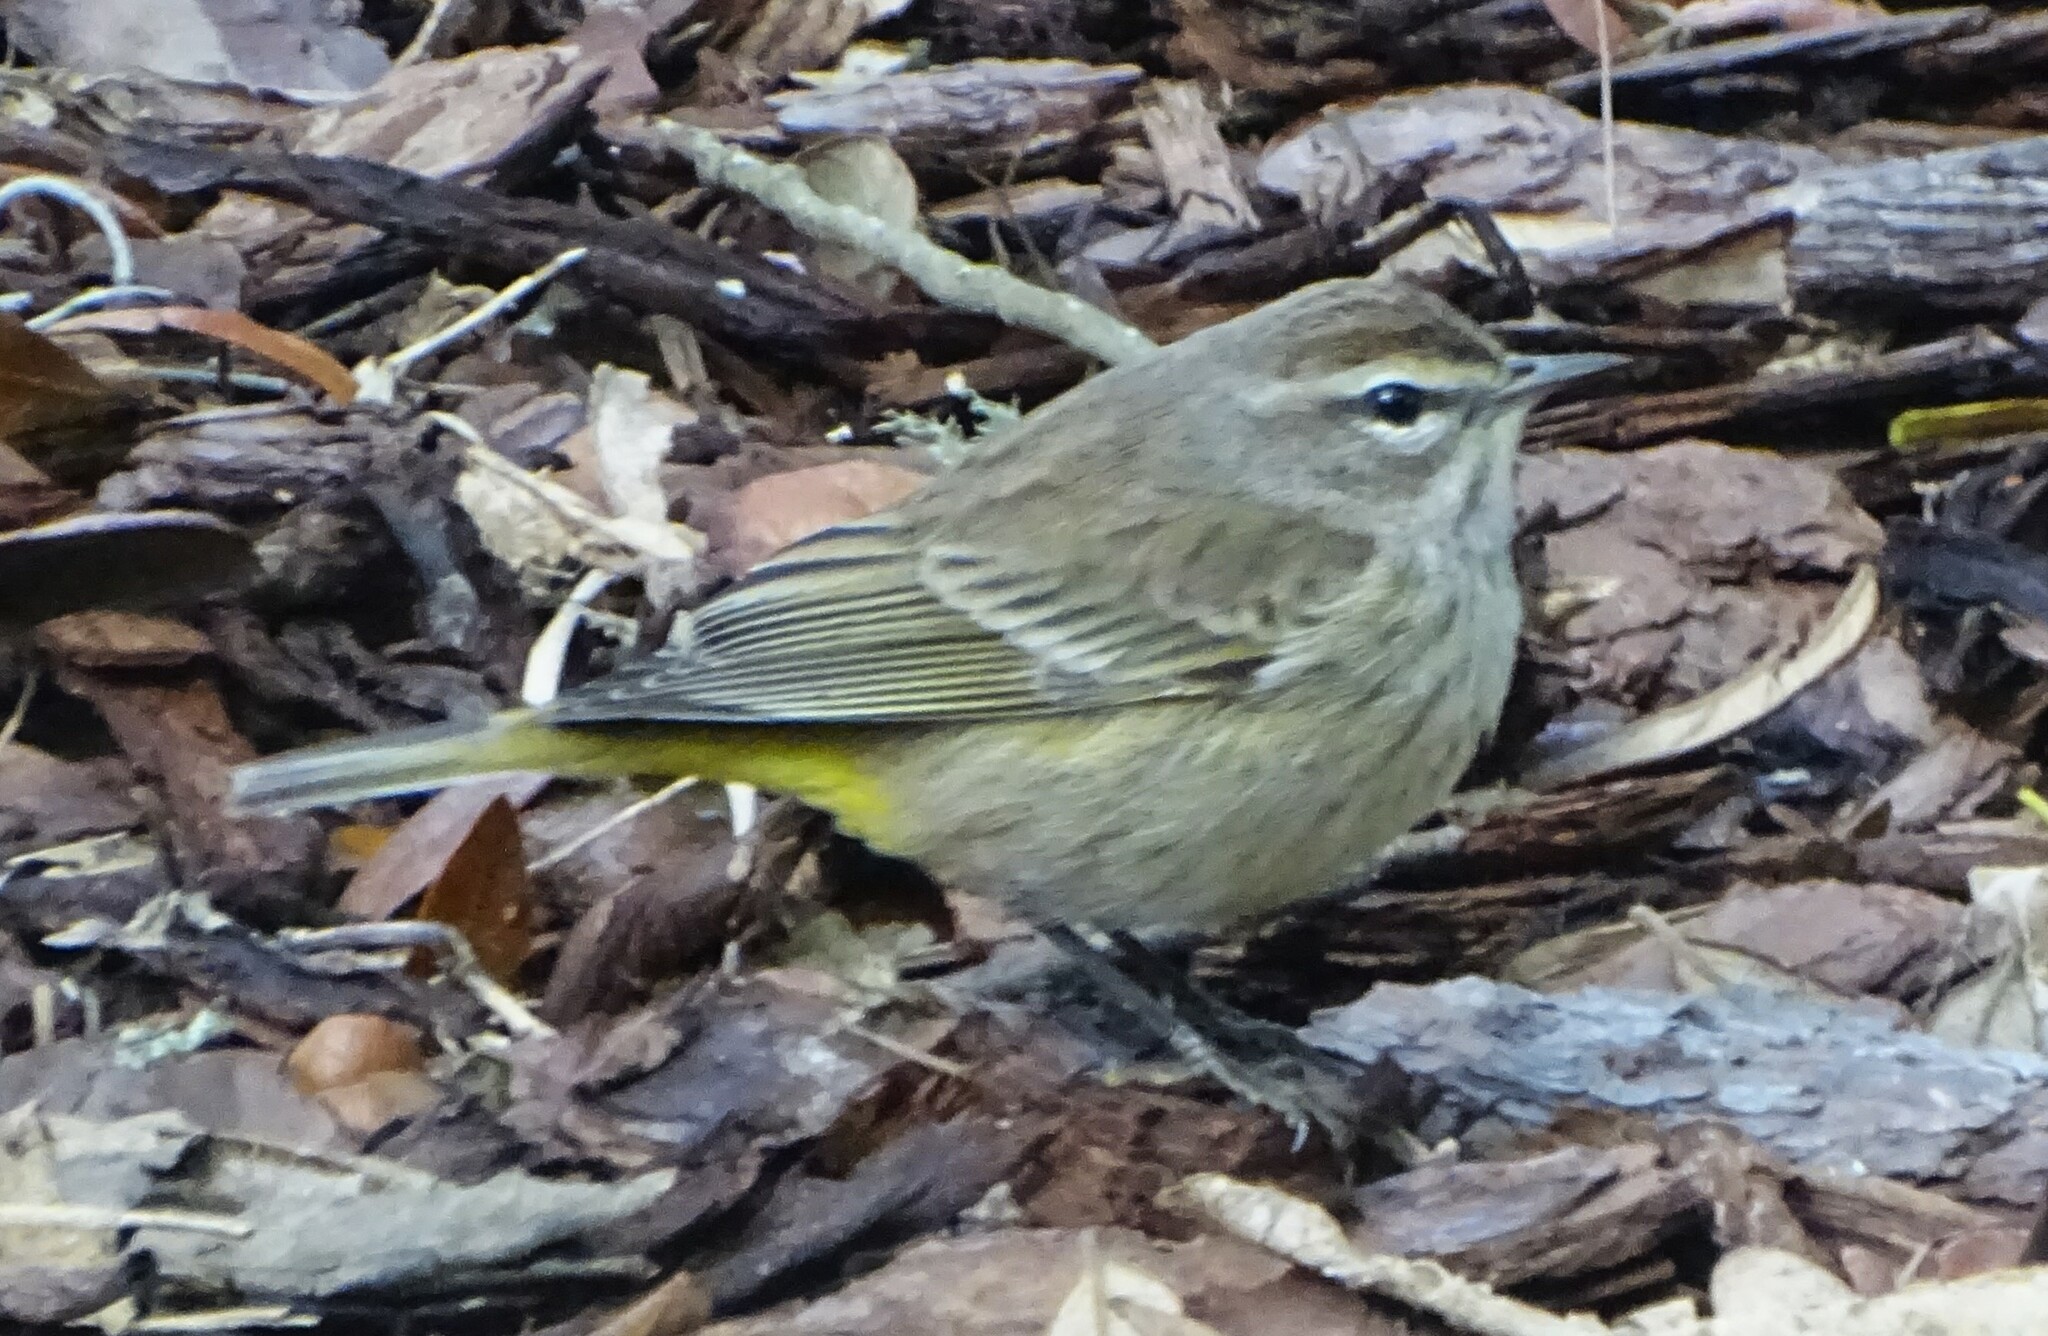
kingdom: Animalia
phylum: Chordata
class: Aves
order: Passeriformes
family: Parulidae
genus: Setophaga
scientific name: Setophaga palmarum
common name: Palm warbler
